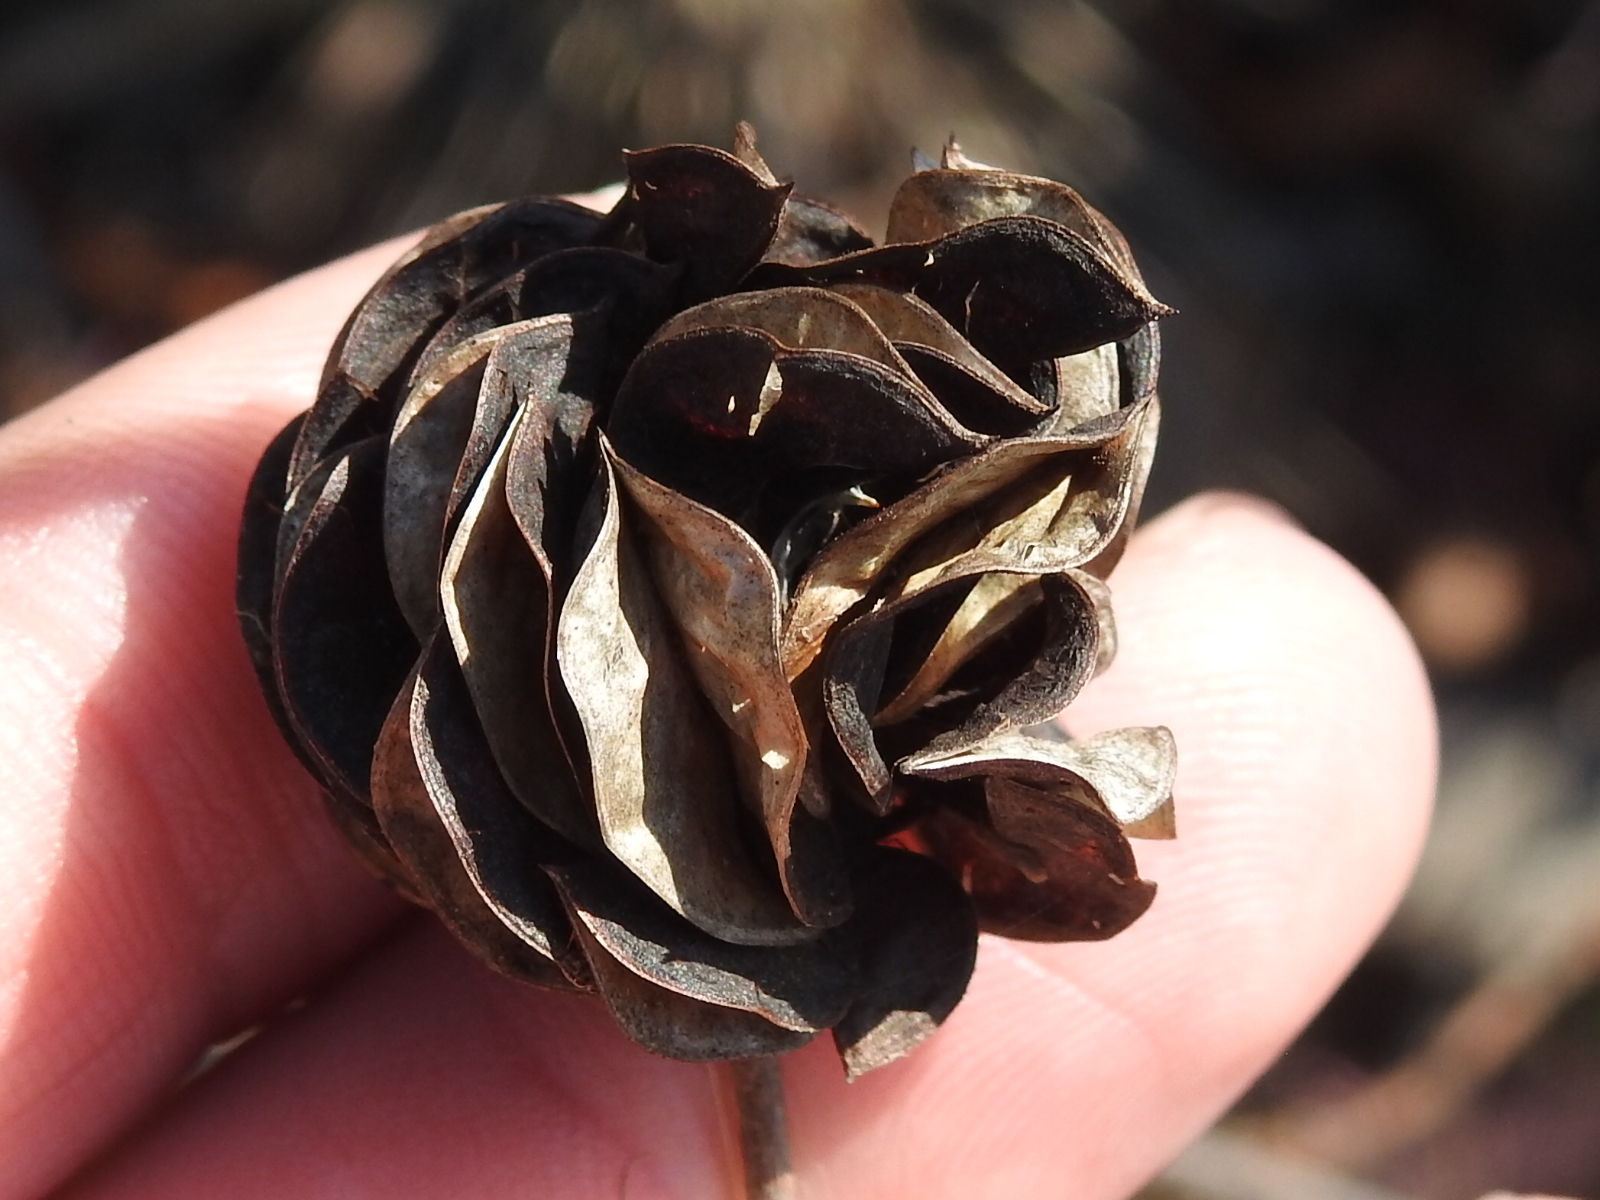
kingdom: Plantae
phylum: Tracheophyta
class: Magnoliopsida
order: Fabales
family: Fabaceae
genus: Desmanthus
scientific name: Desmanthus illinoensis
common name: Illinois bundle-flower
